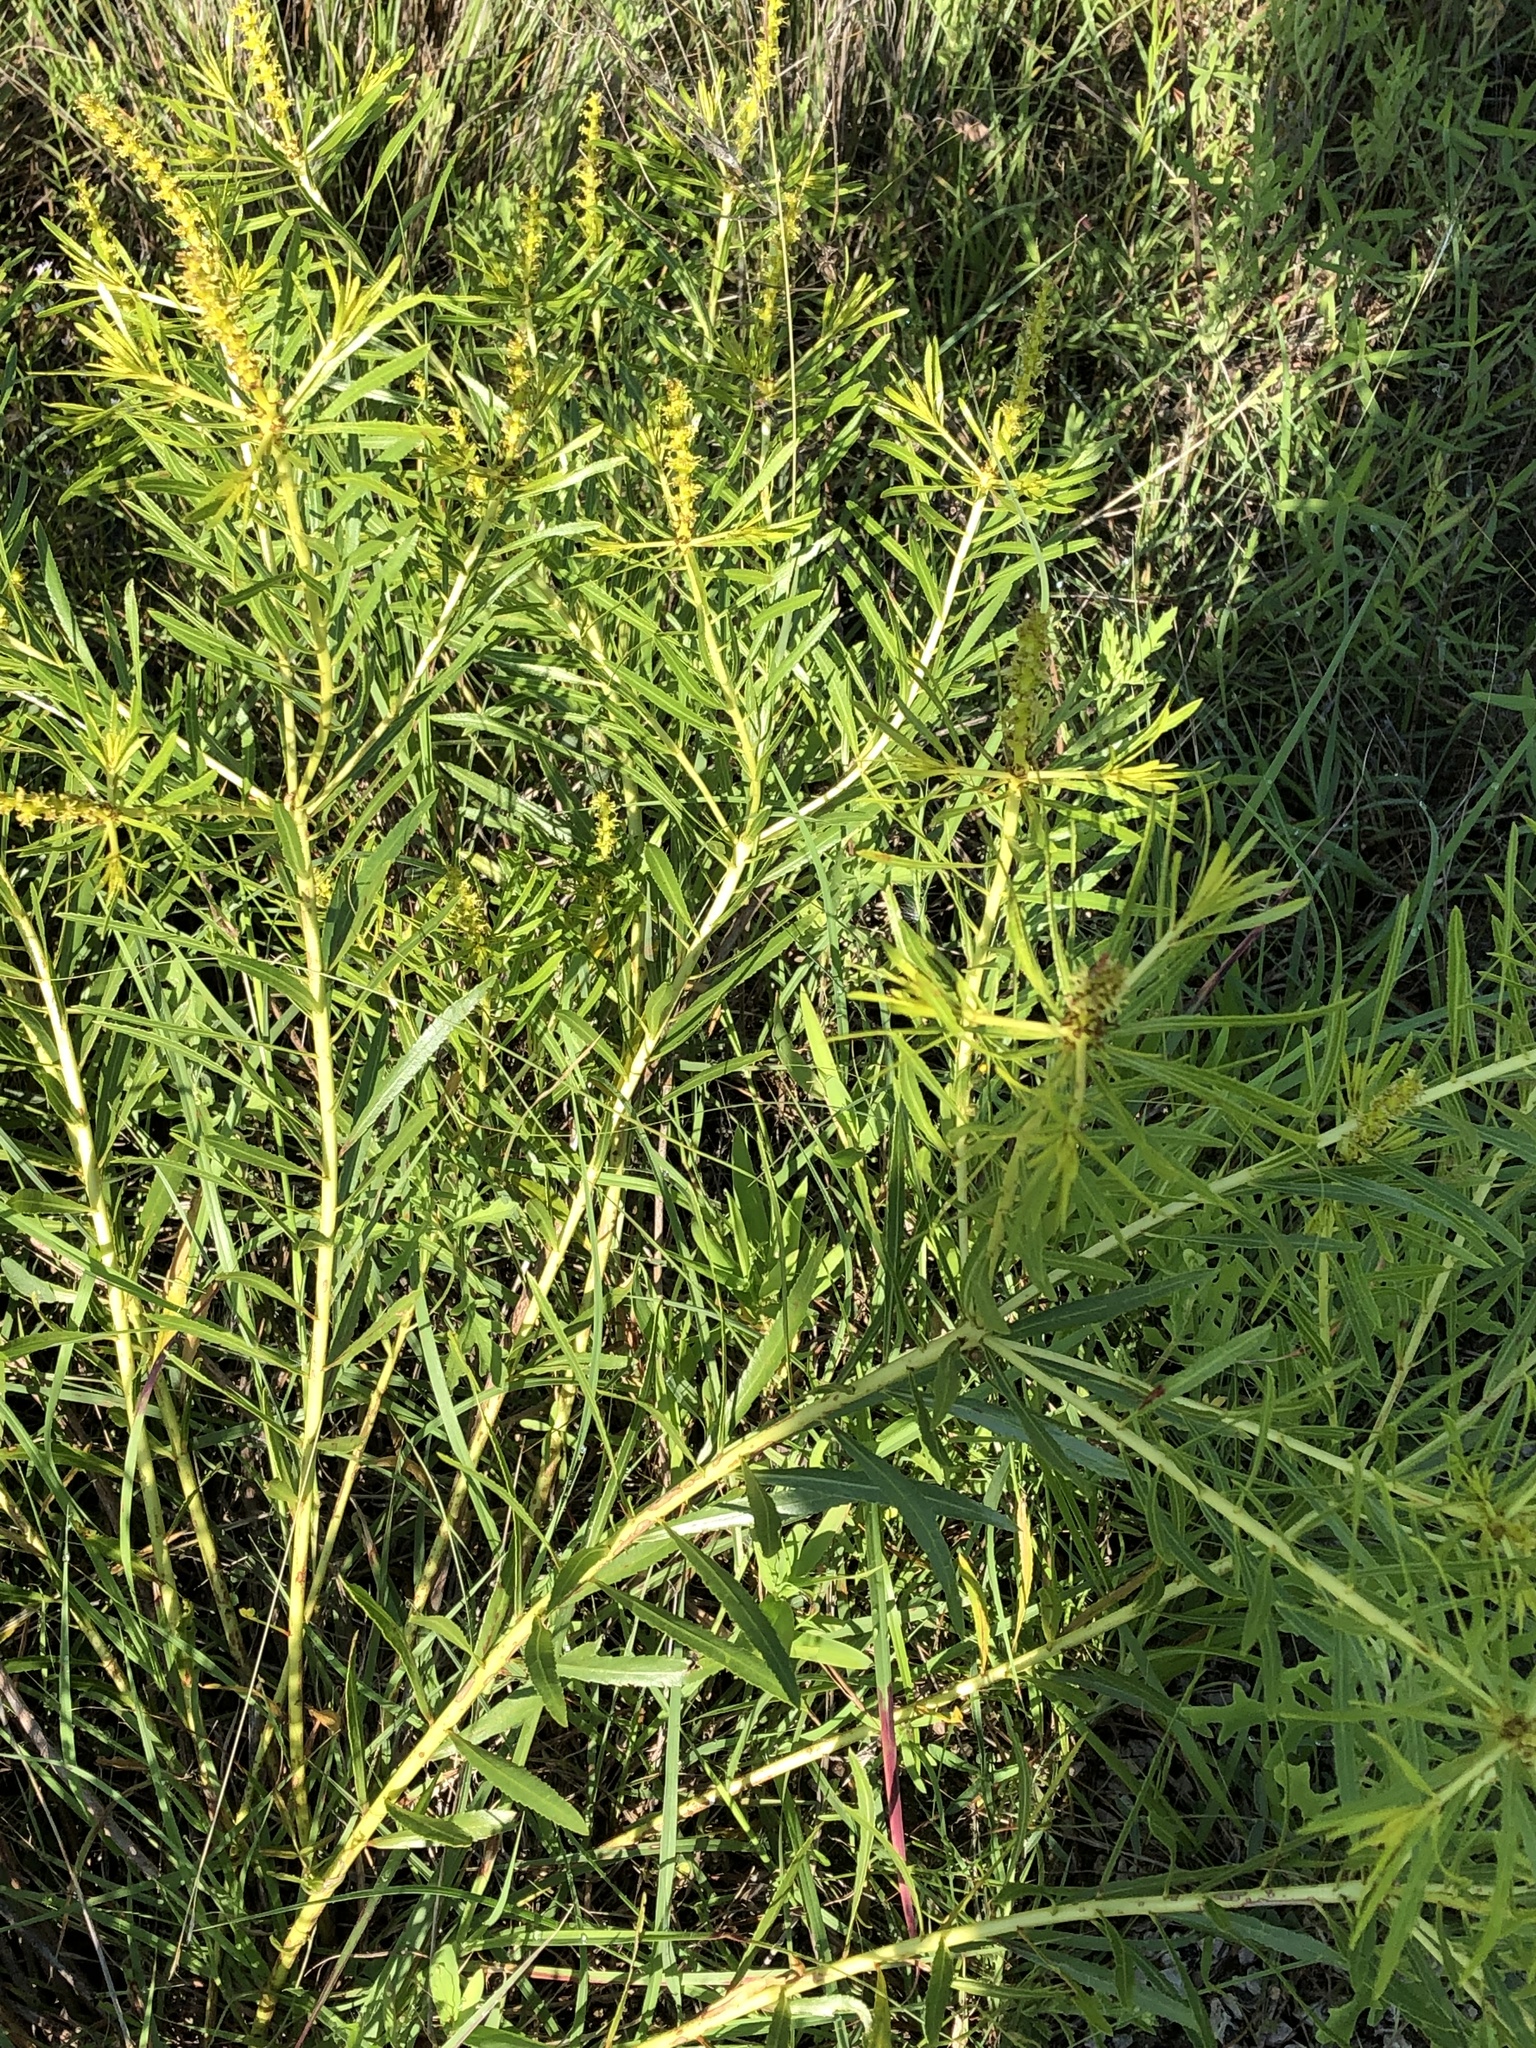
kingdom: Plantae
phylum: Tracheophyta
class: Magnoliopsida
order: Malpighiales
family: Euphorbiaceae
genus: Stillingia
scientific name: Stillingia texana
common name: Texas stillingia
